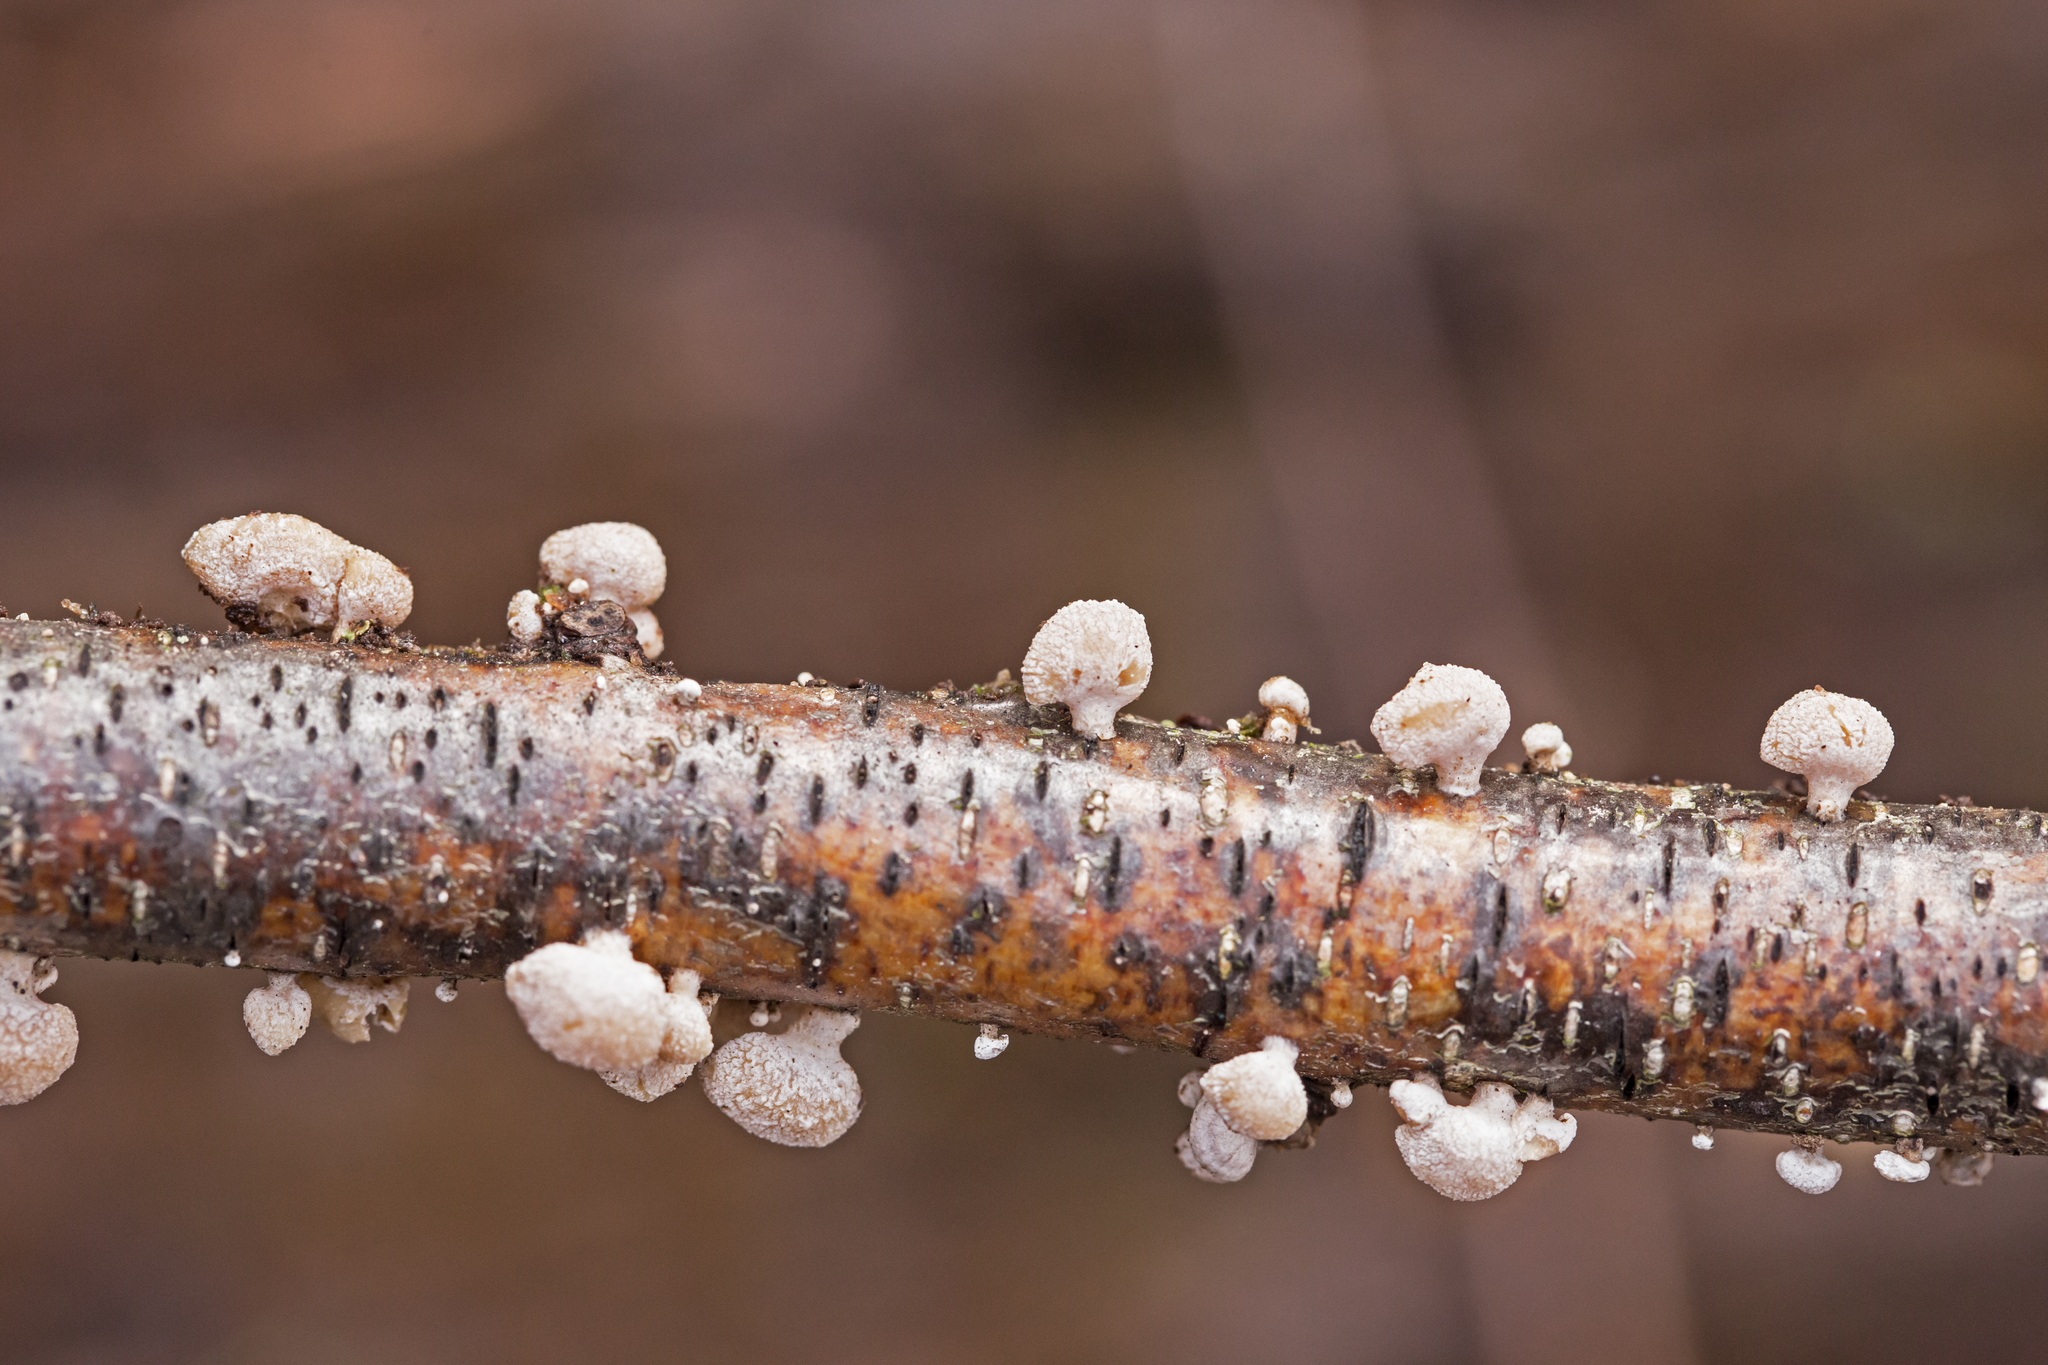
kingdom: Fungi
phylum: Basidiomycota
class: Agaricomycetes
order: Agaricales
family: Mycenaceae
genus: Panellus
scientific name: Panellus stipticus
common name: Bitter oysterling
